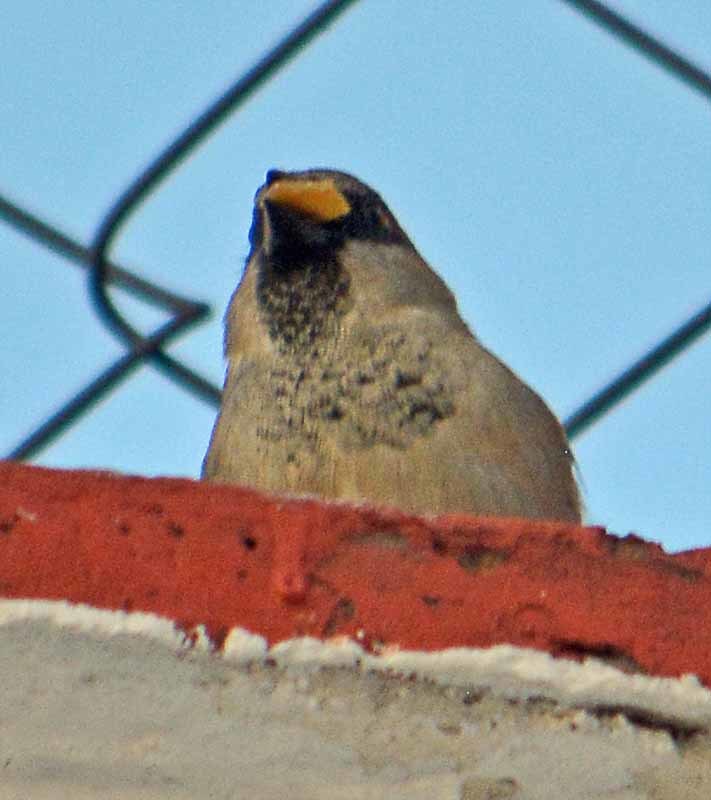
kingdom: Animalia
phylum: Chordata
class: Aves
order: Passeriformes
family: Passeridae
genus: Passer
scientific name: Passer domesticus
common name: House sparrow
